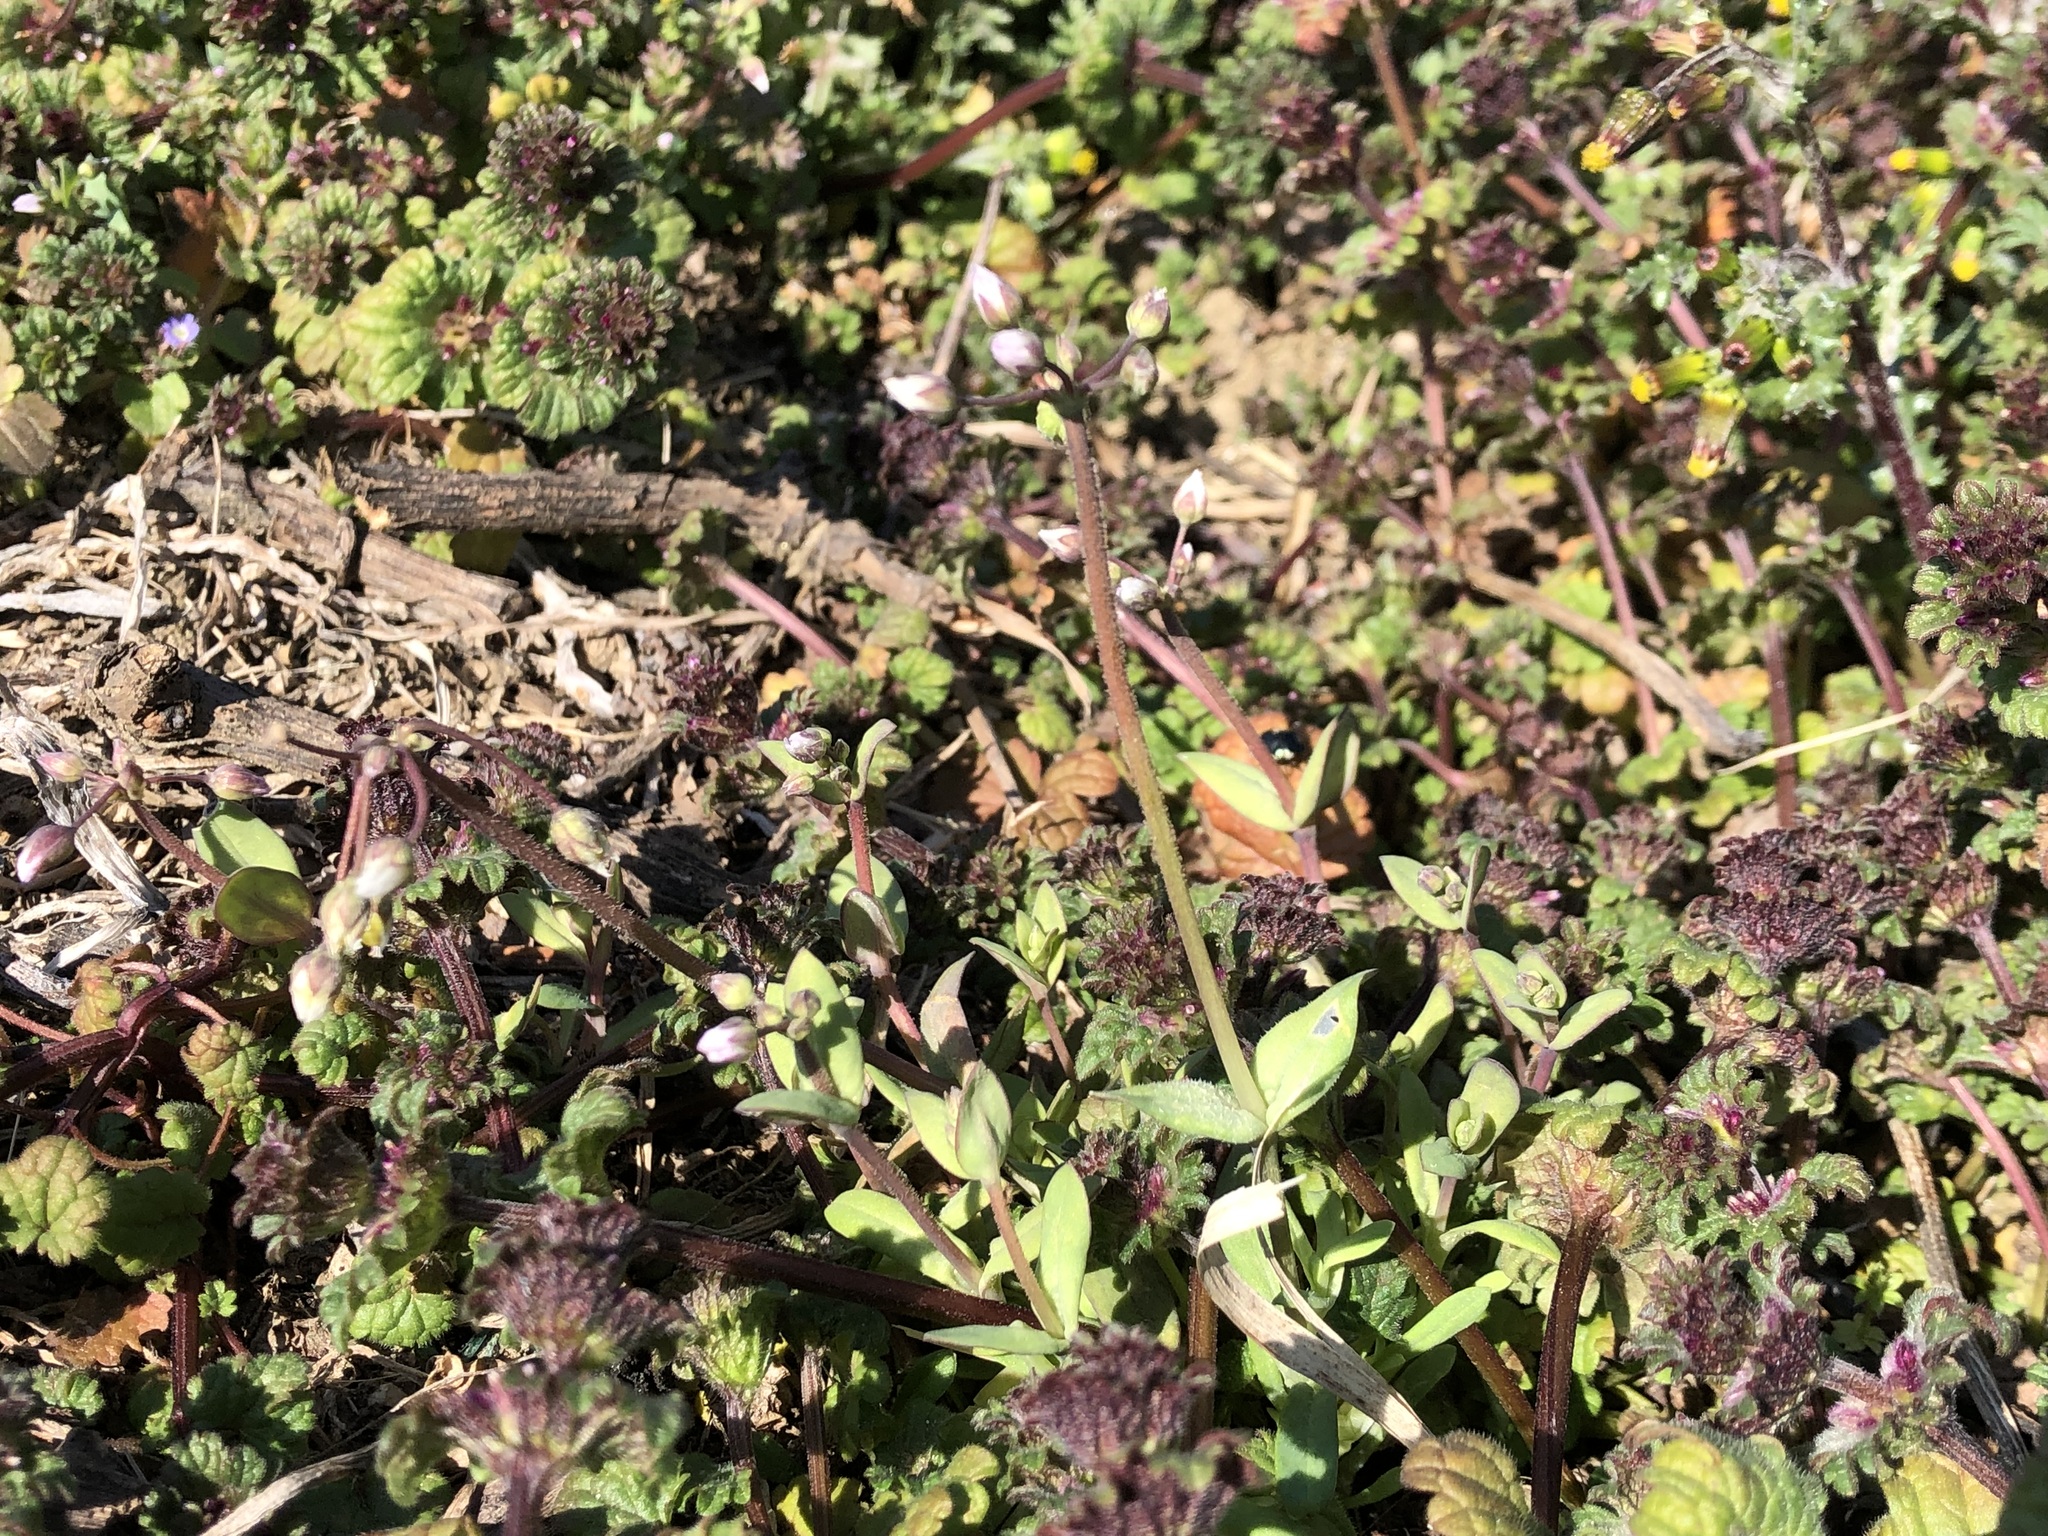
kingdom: Plantae
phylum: Tracheophyta
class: Magnoliopsida
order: Caryophyllales
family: Caryophyllaceae
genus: Holosteum
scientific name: Holosteum umbellatum
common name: Jagged chickweed
